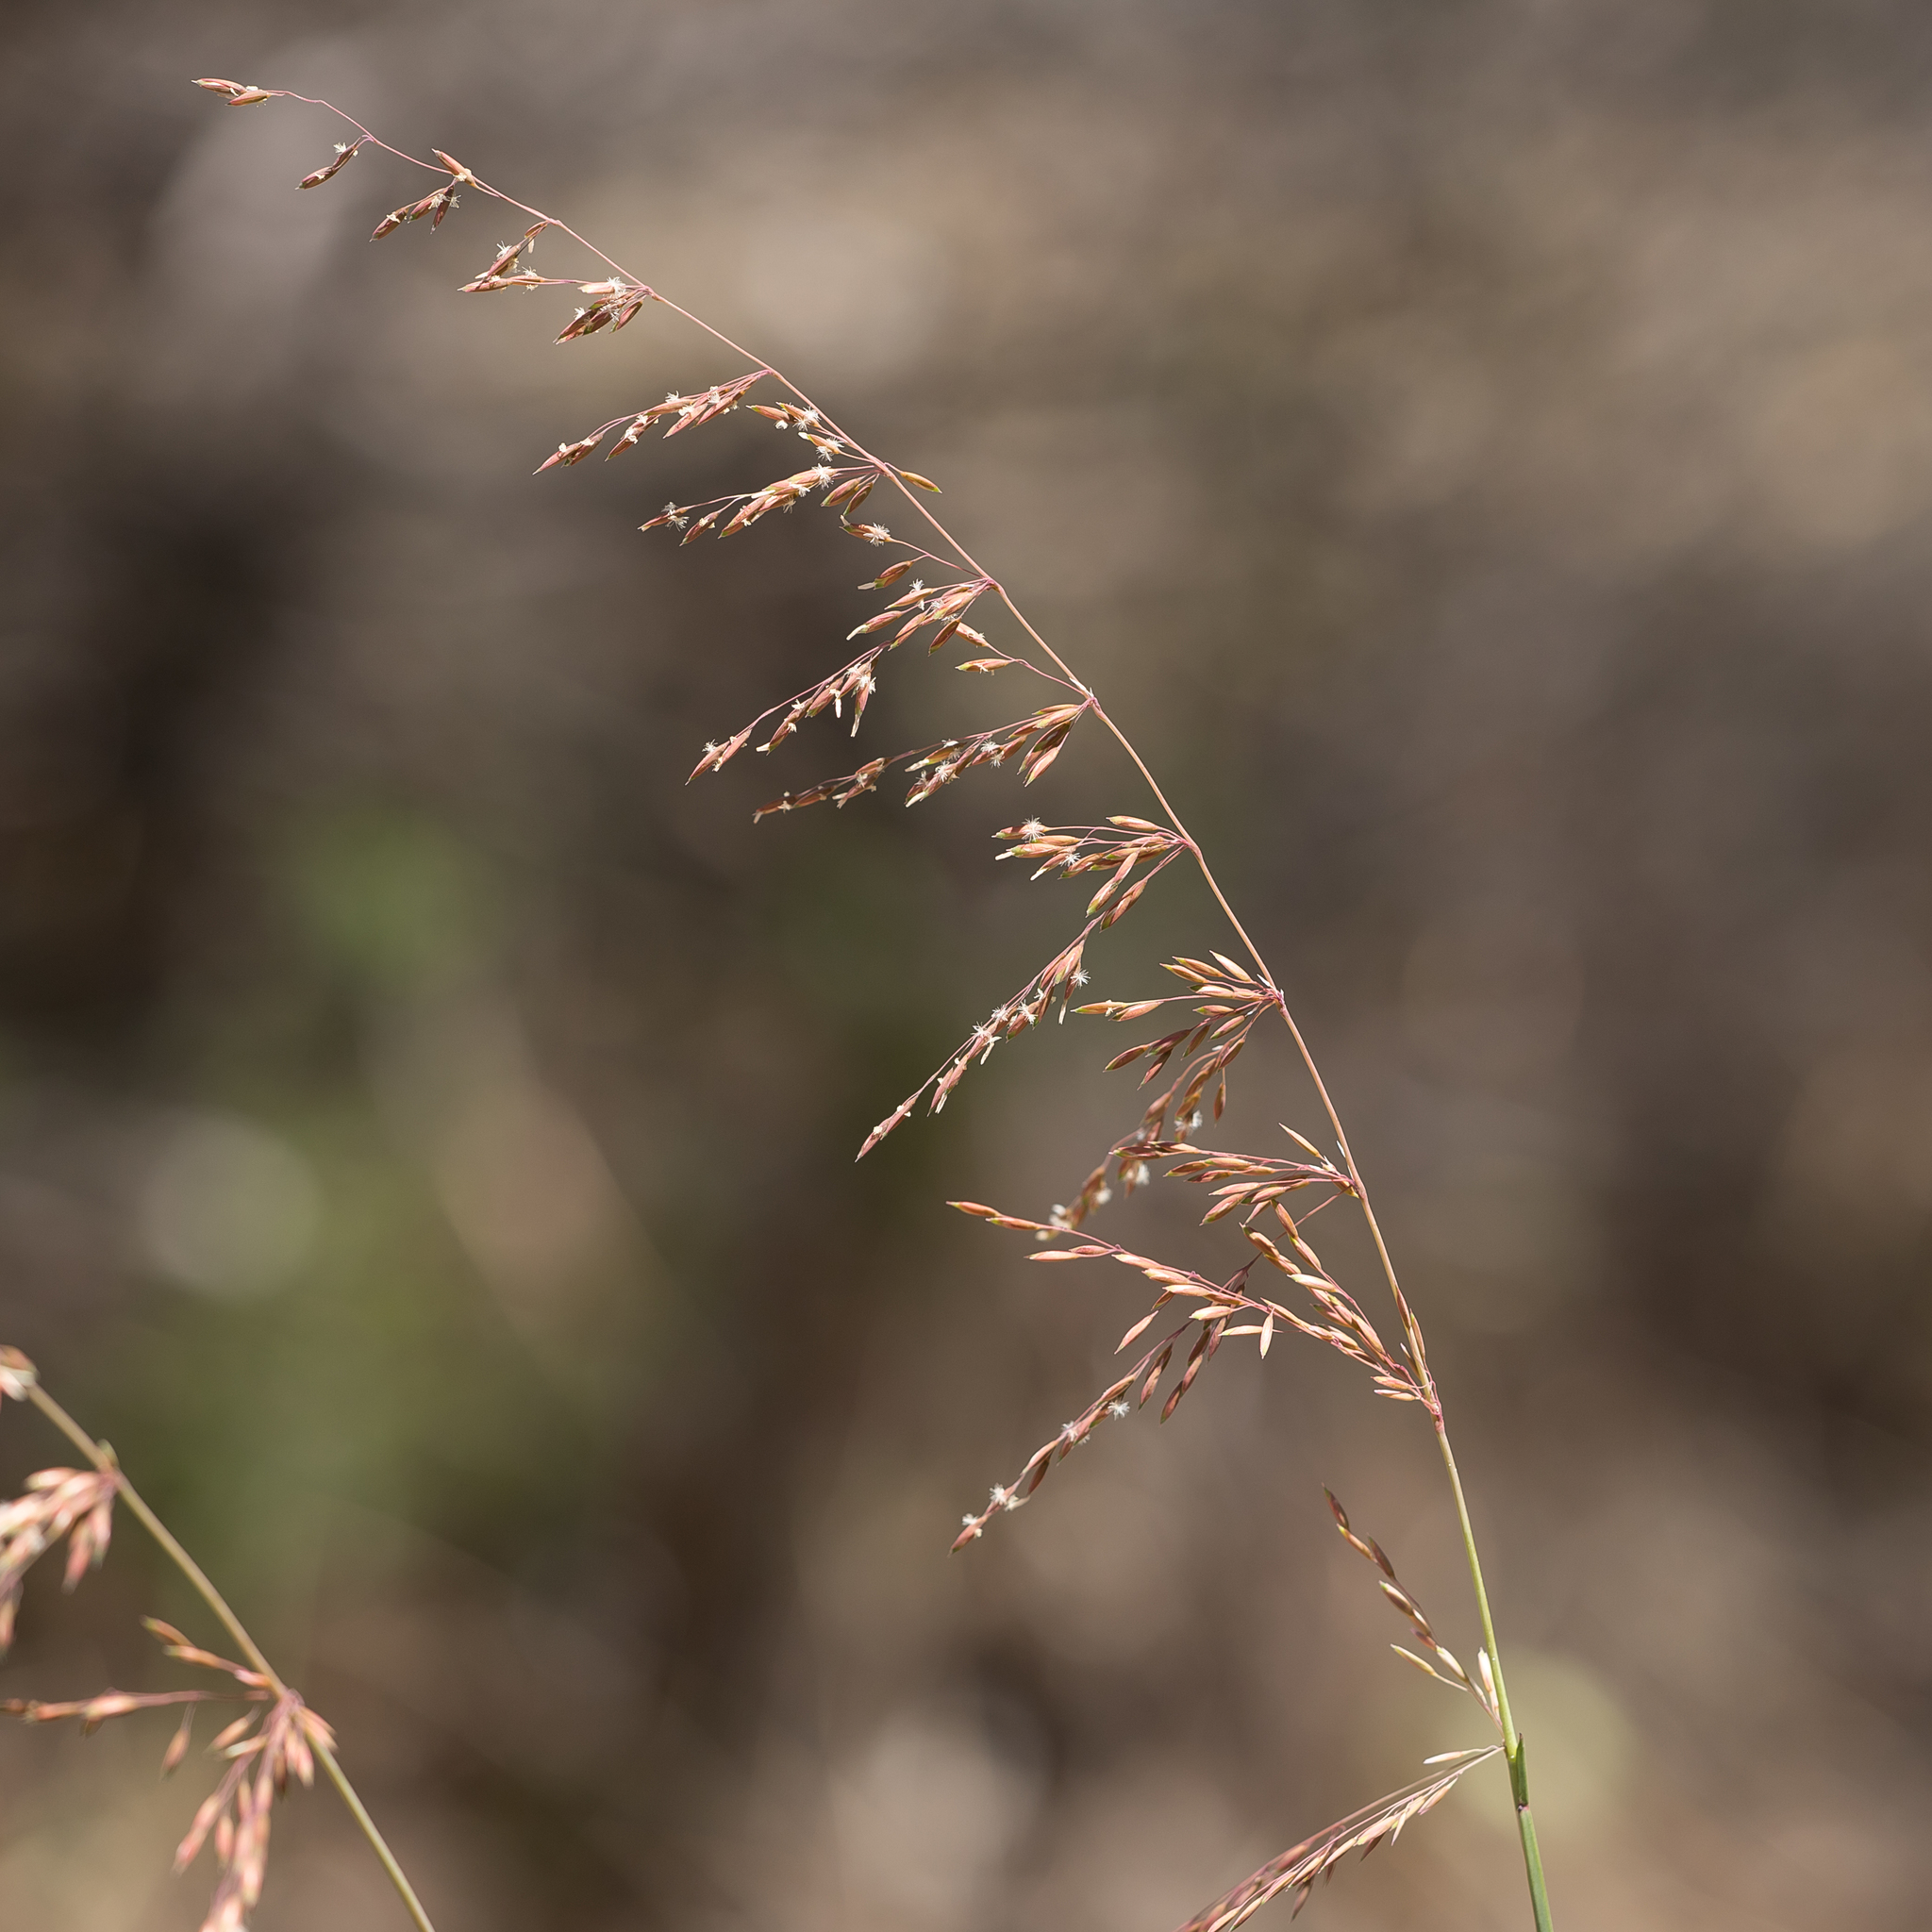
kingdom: Plantae
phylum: Tracheophyta
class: Liliopsida
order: Poales
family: Poaceae
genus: Ehrharta
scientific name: Ehrharta calycina
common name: Perennial veldtgrass
